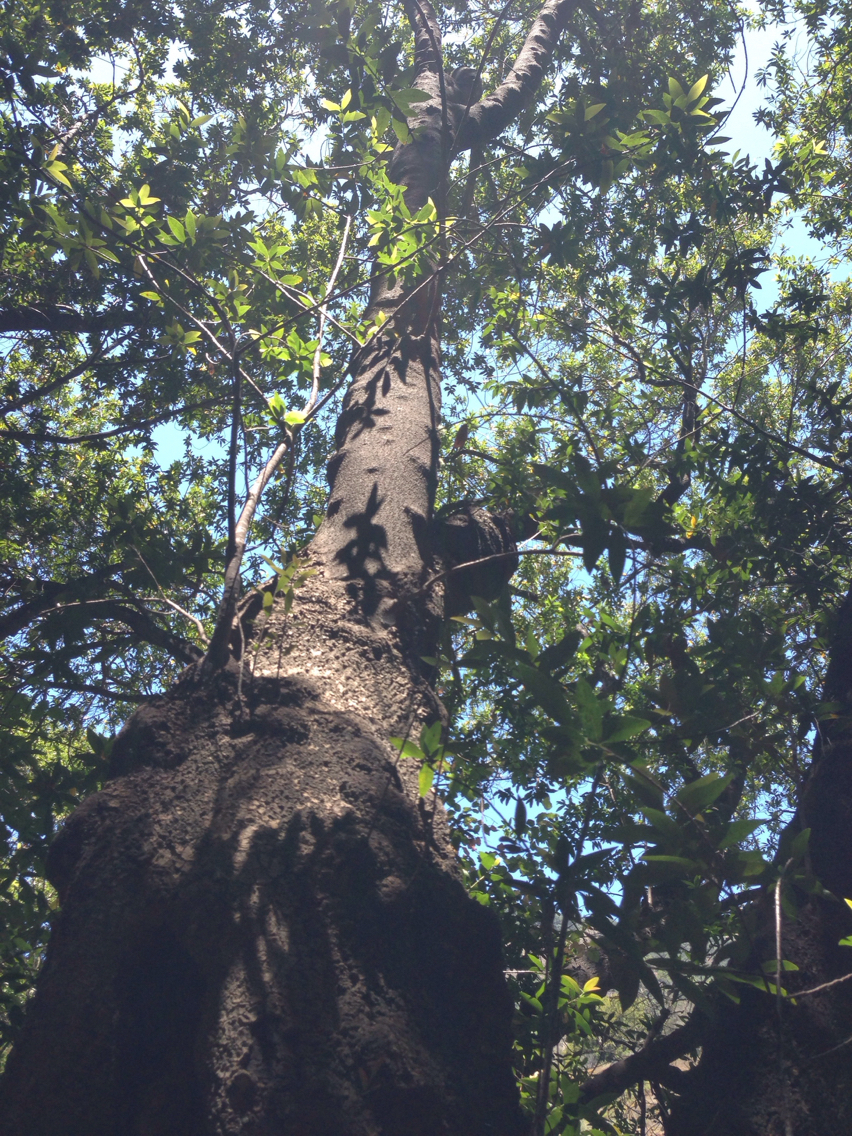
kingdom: Plantae
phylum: Tracheophyta
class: Magnoliopsida
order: Laurales
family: Lauraceae
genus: Umbellularia
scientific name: Umbellularia californica
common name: California bay
